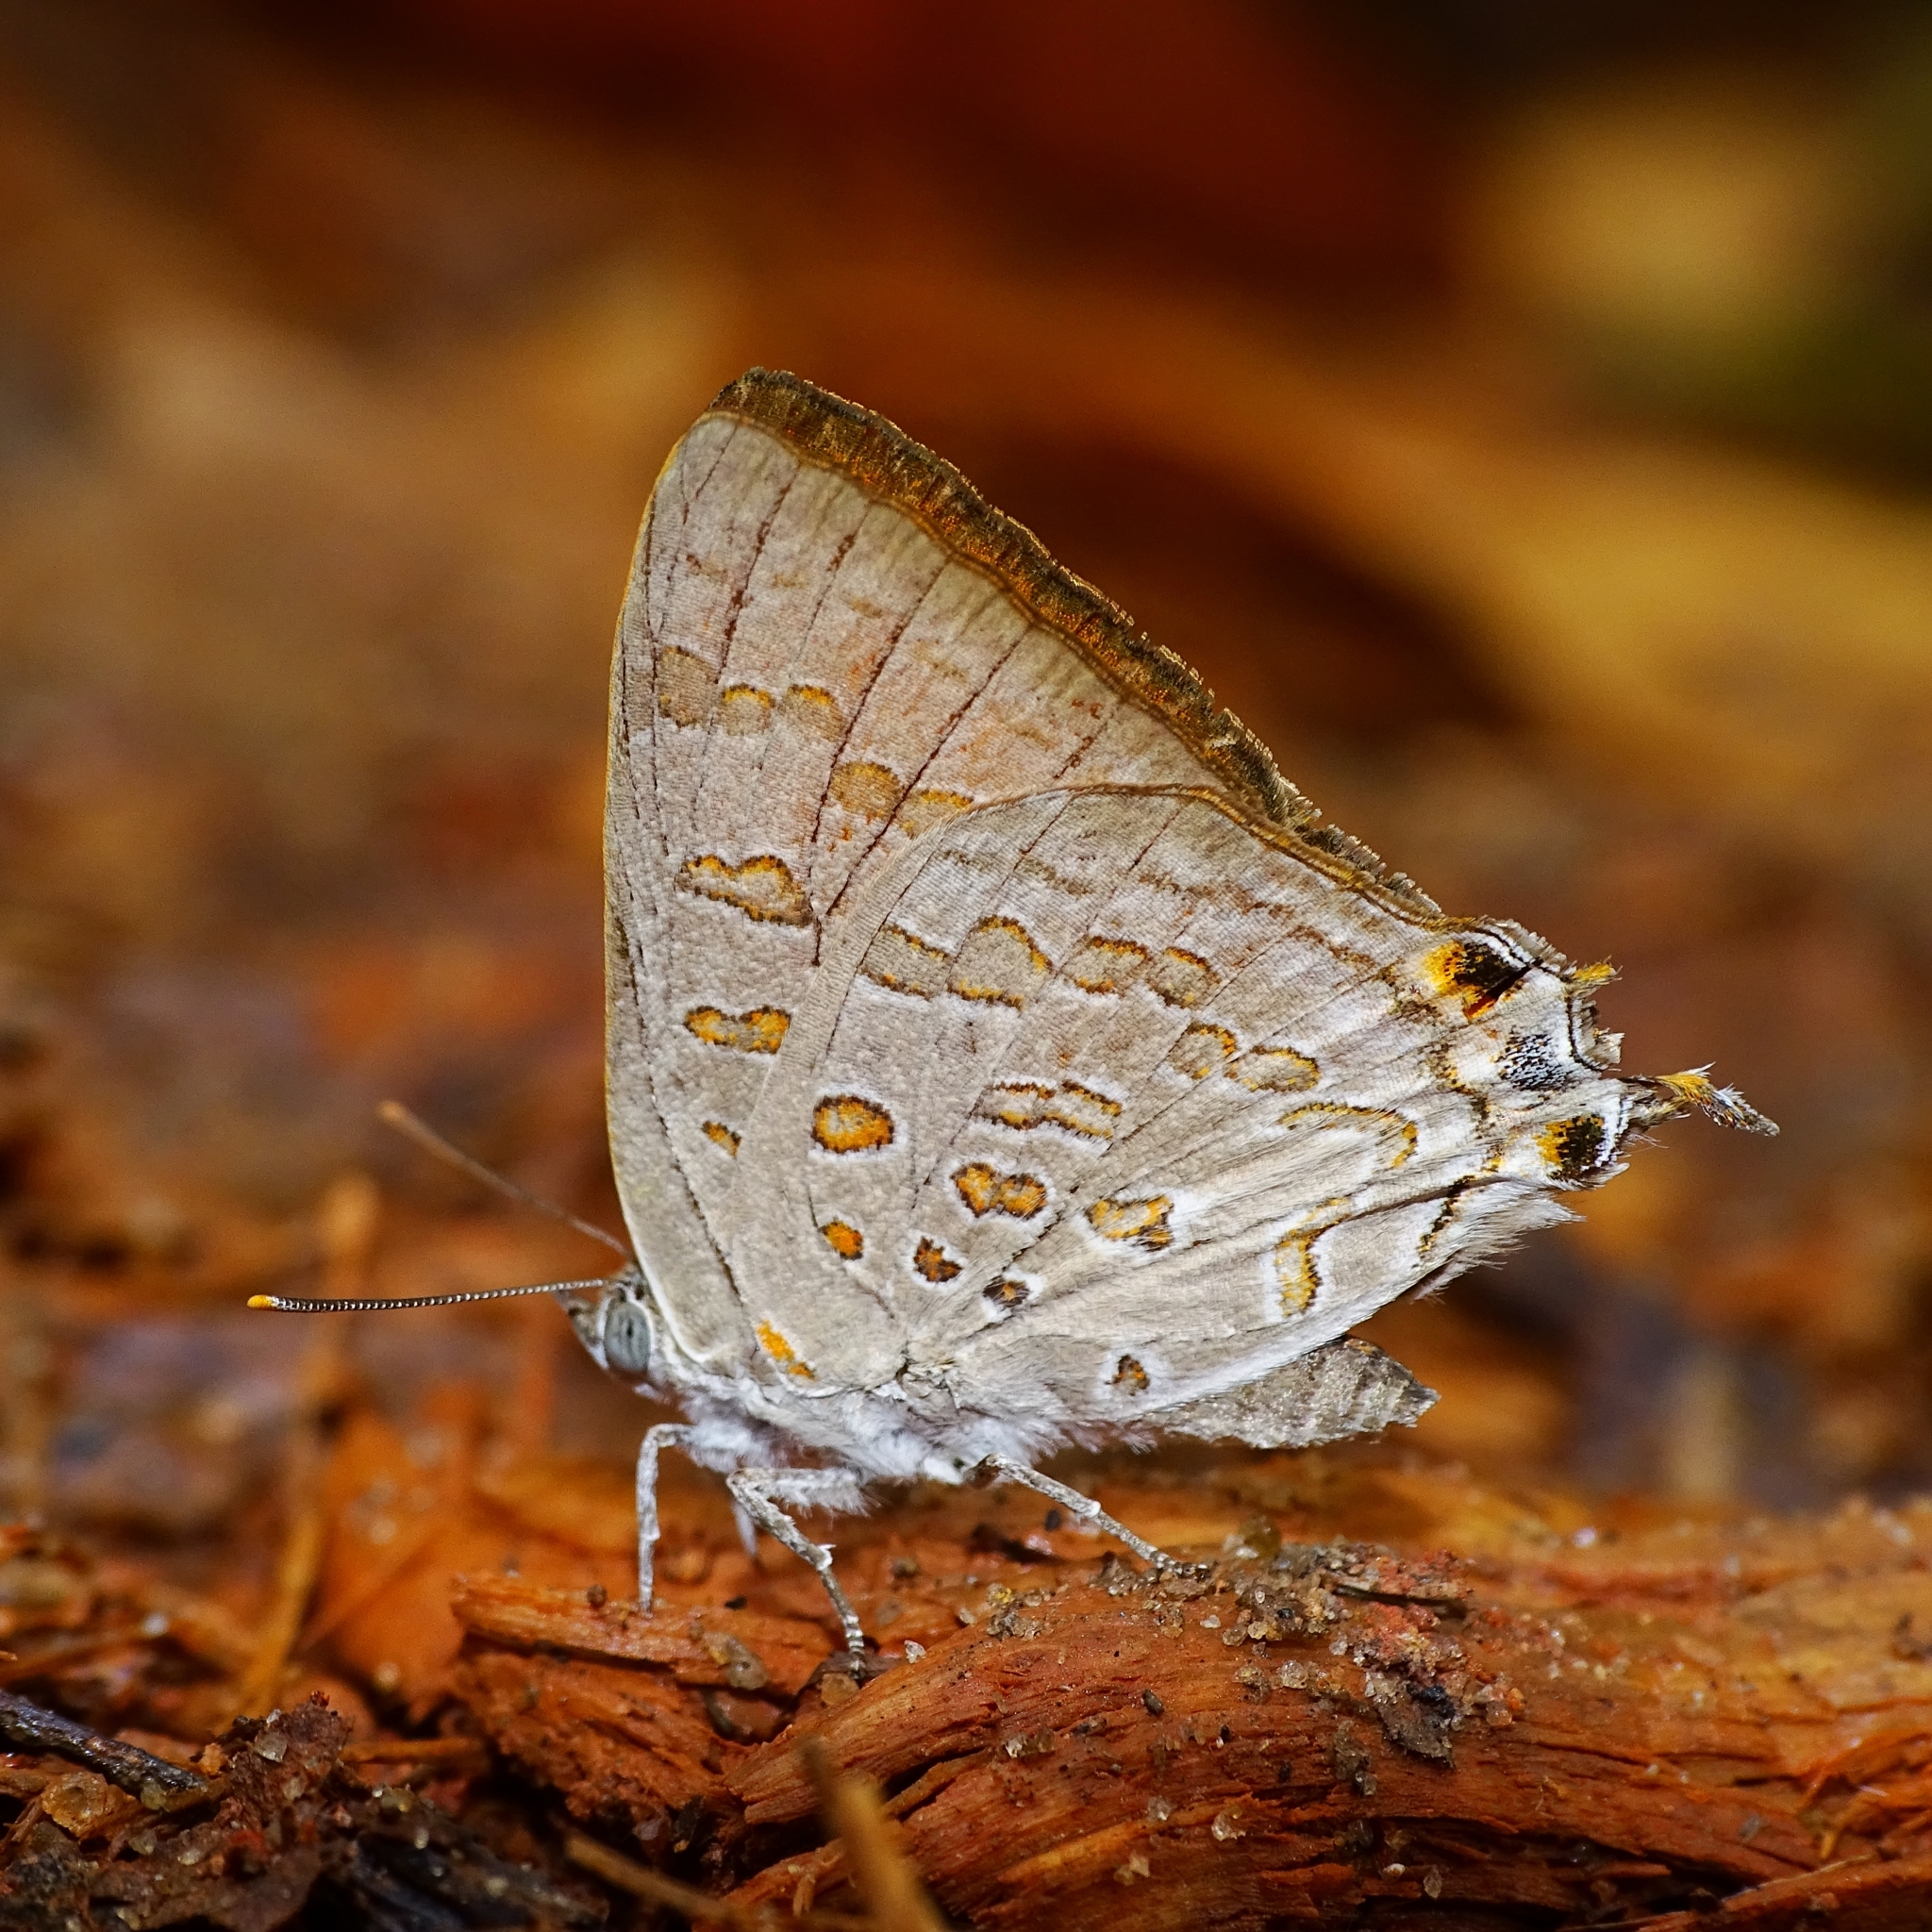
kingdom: Animalia
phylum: Arthropoda
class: Insecta
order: Lepidoptera
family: Lycaenidae
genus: Zesius
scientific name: Zesius chrysomallus
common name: Redspot
